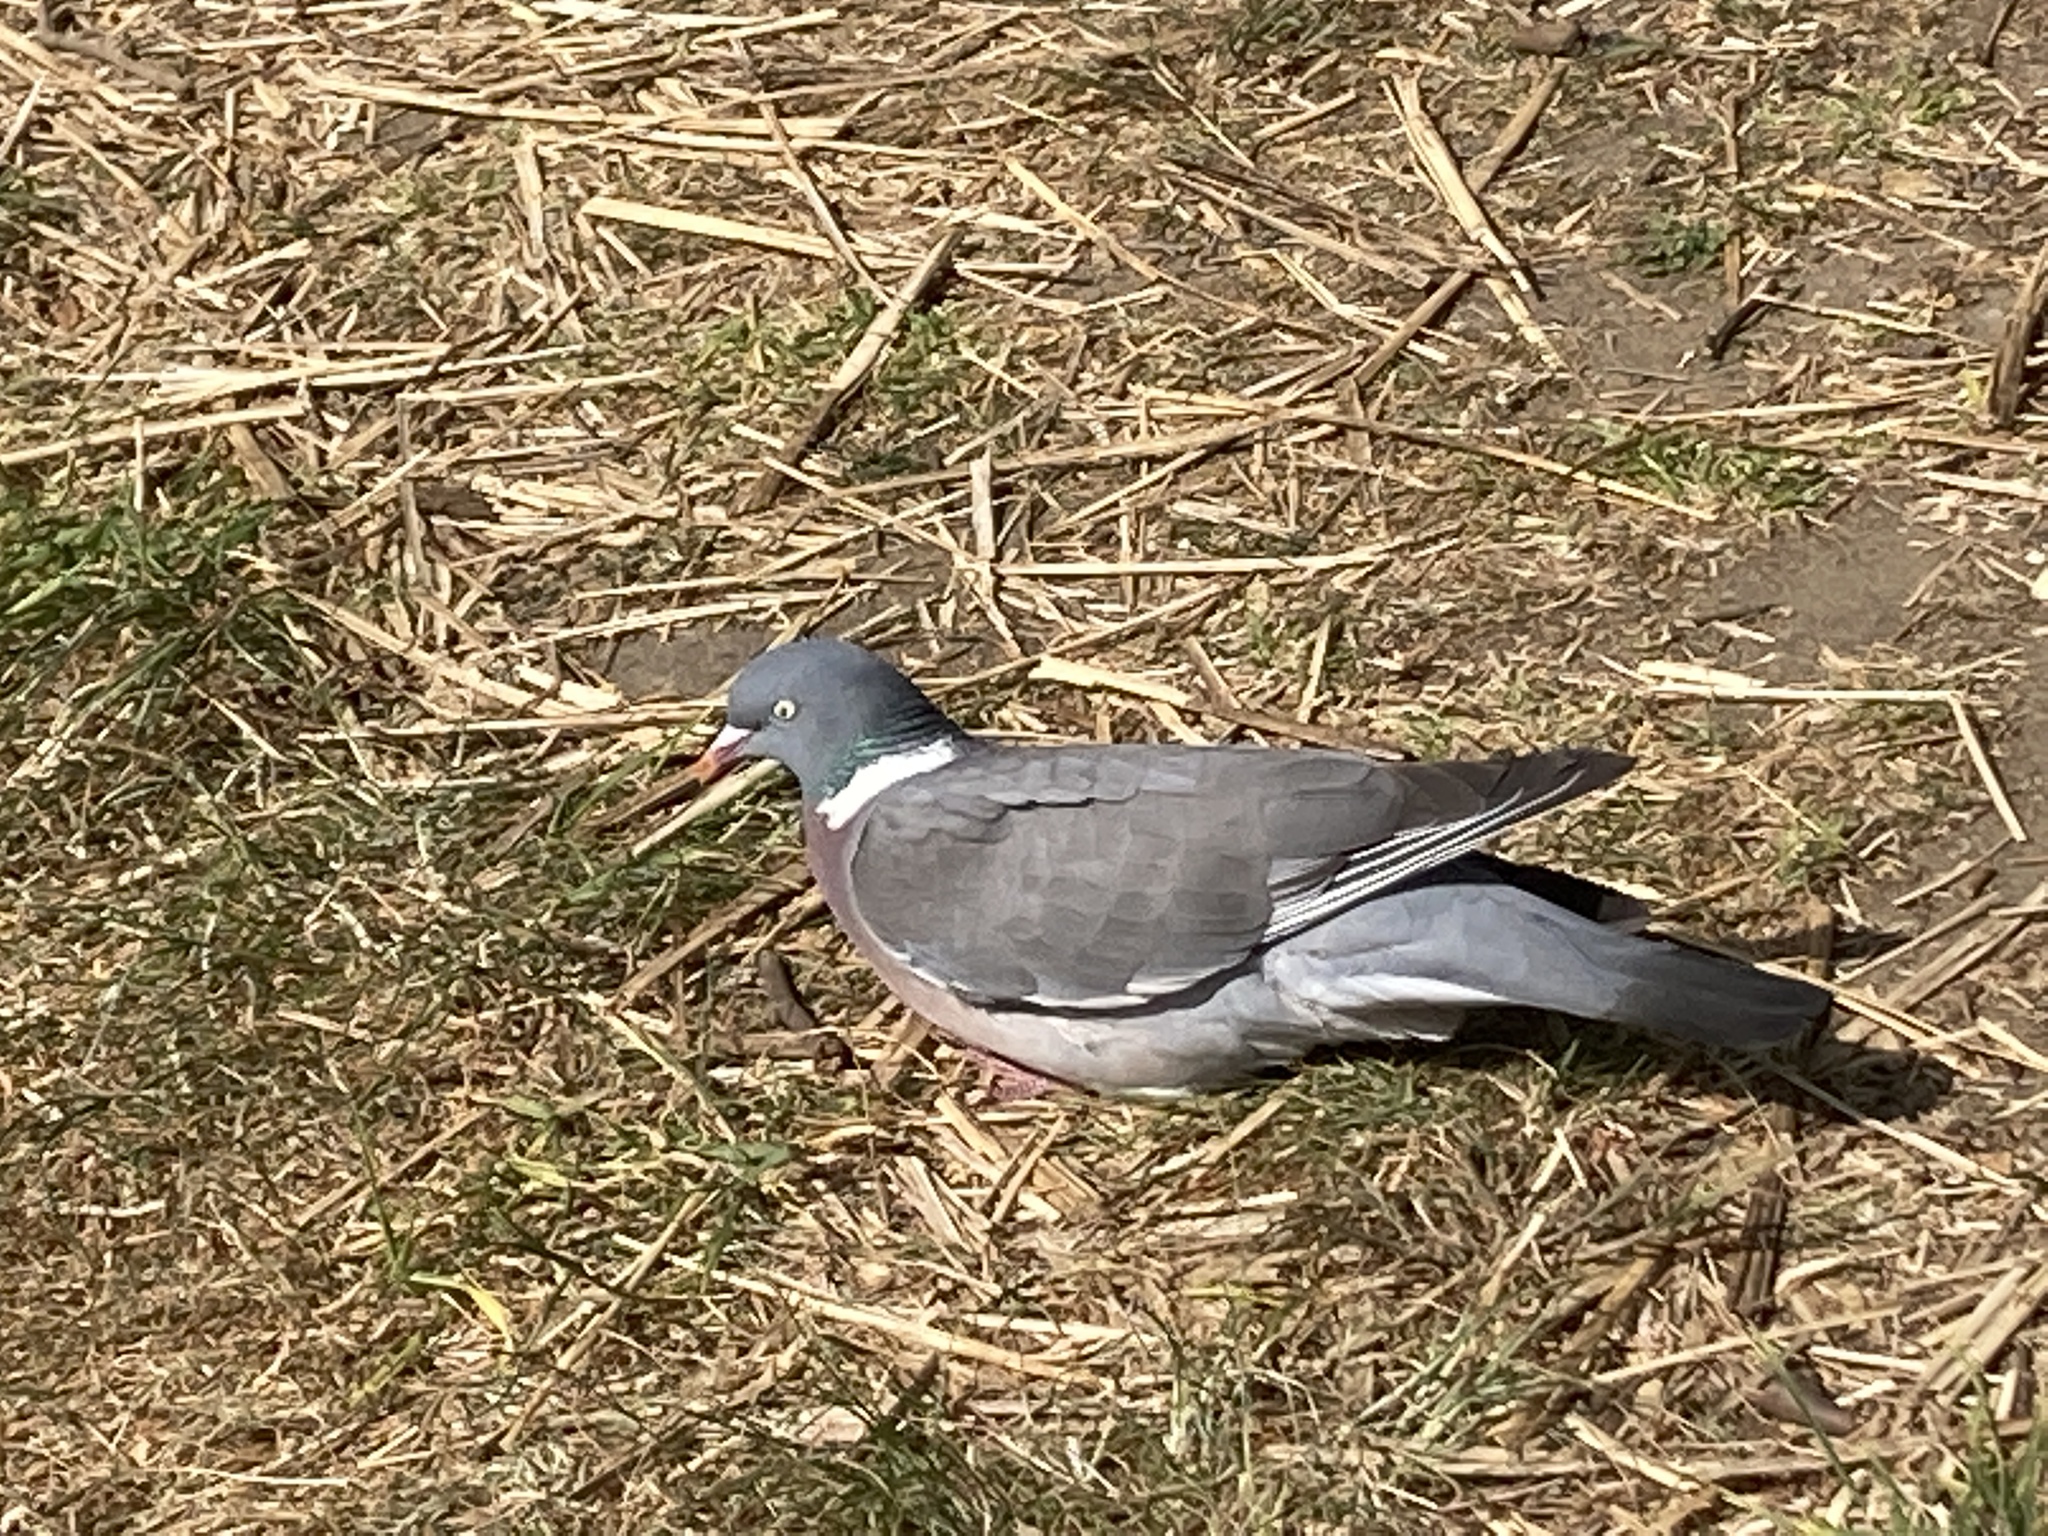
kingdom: Animalia
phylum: Chordata
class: Aves
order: Columbiformes
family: Columbidae
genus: Columba
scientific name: Columba palumbus
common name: Common wood pigeon
